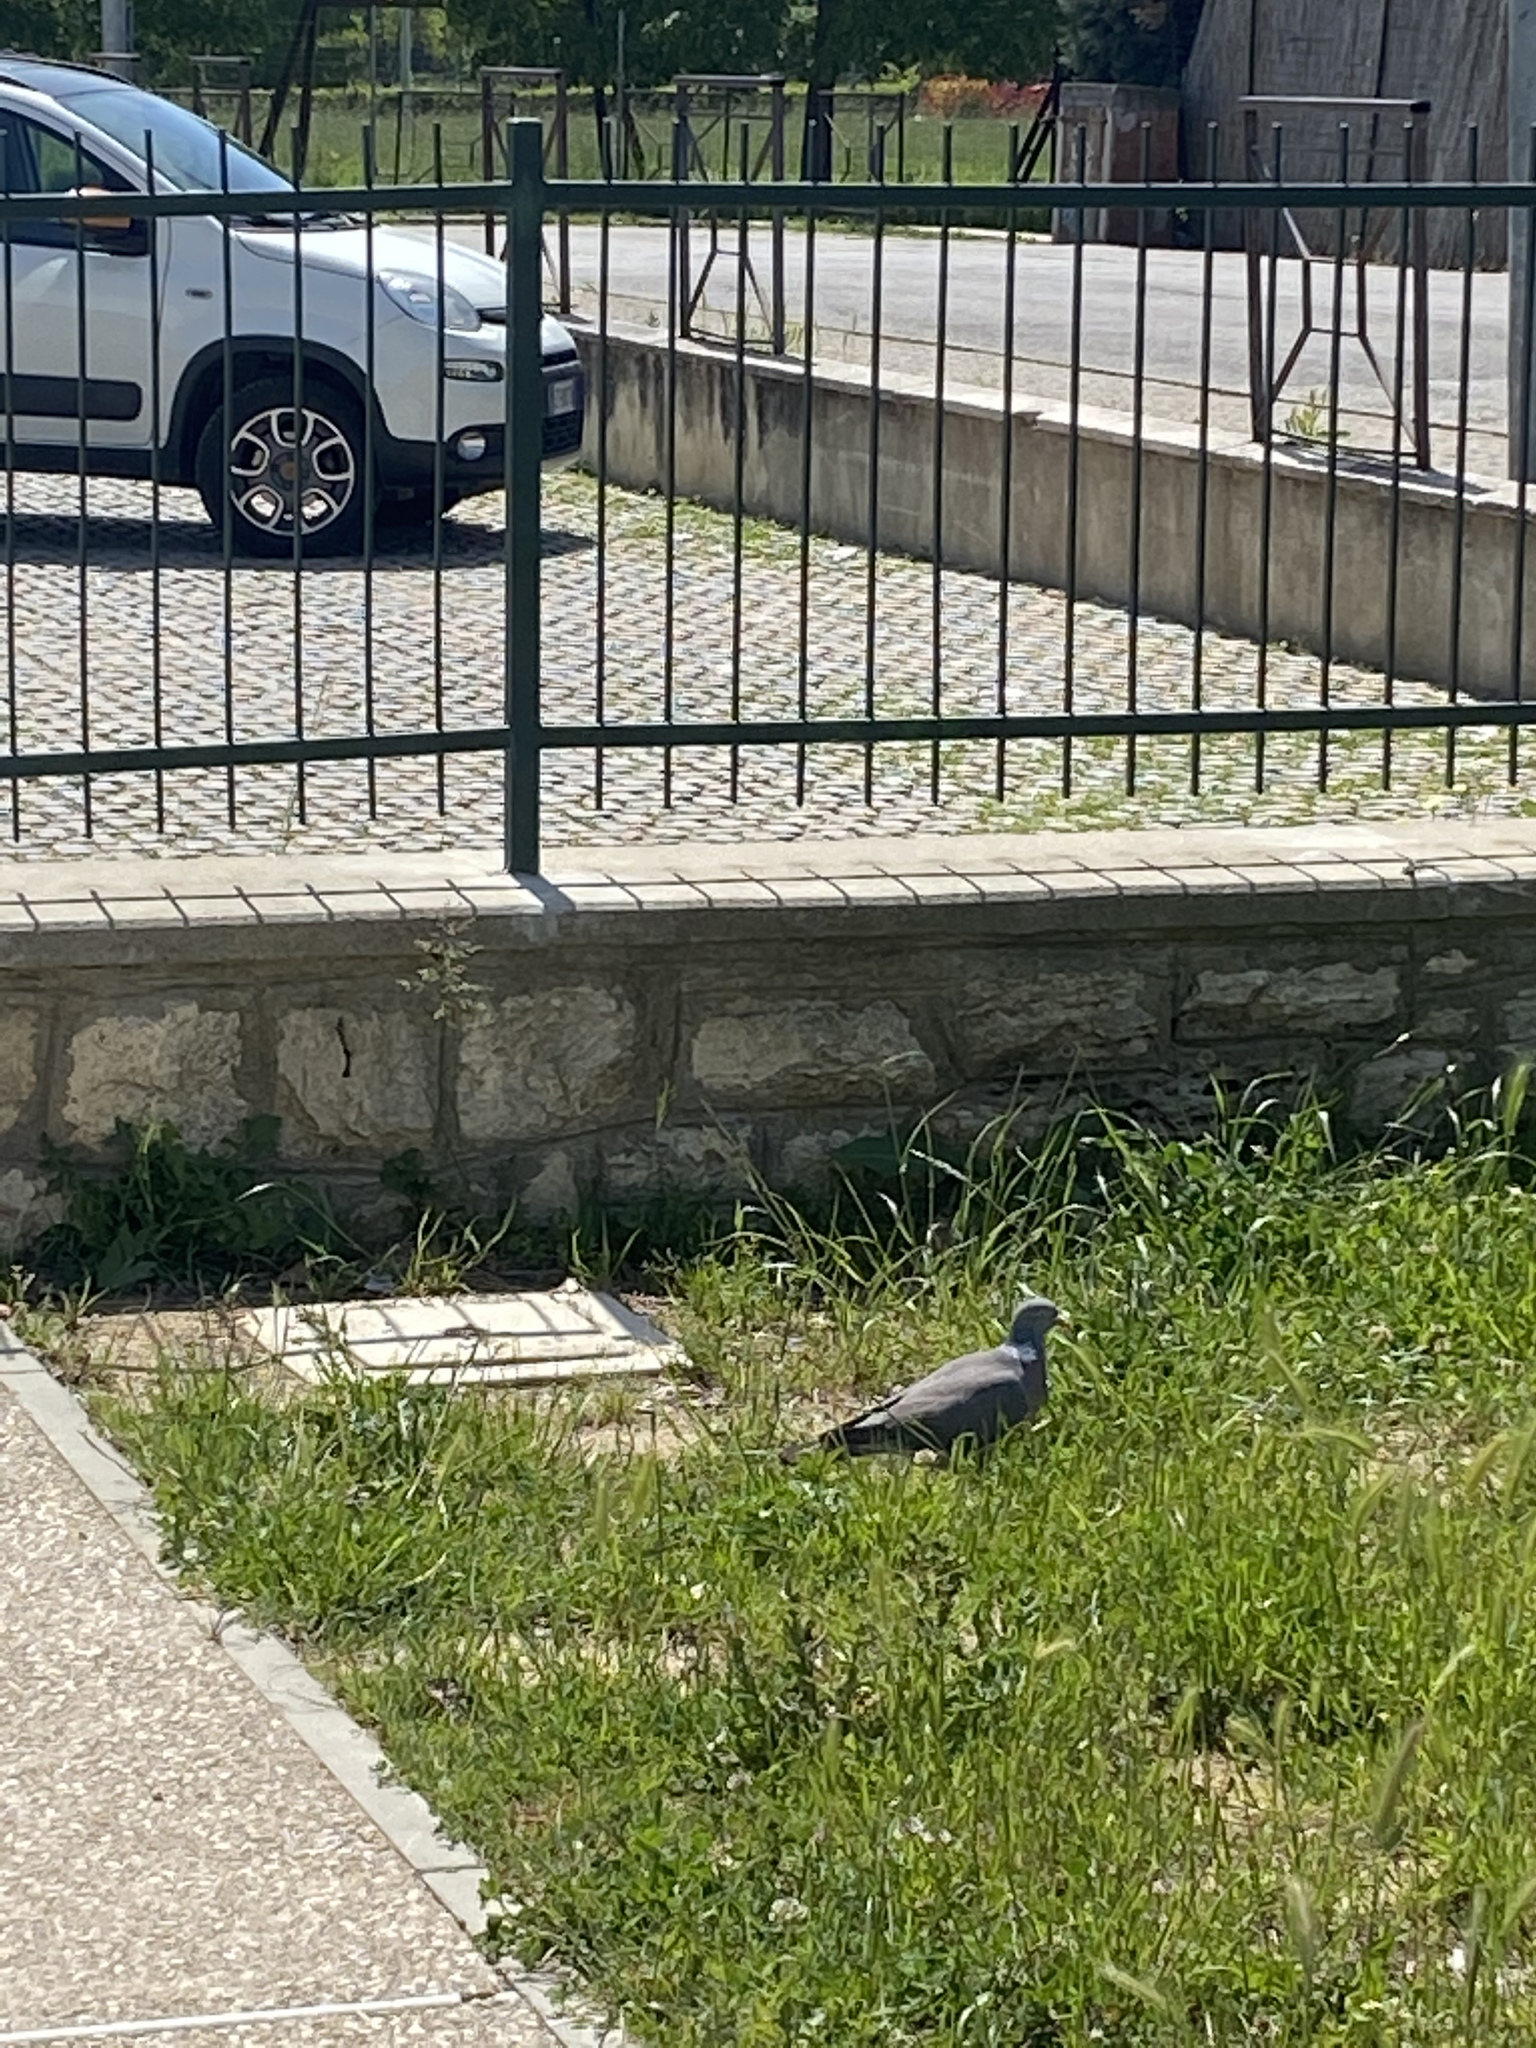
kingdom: Animalia
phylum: Chordata
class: Aves
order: Columbiformes
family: Columbidae
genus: Columba
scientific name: Columba palumbus
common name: Common wood pigeon
